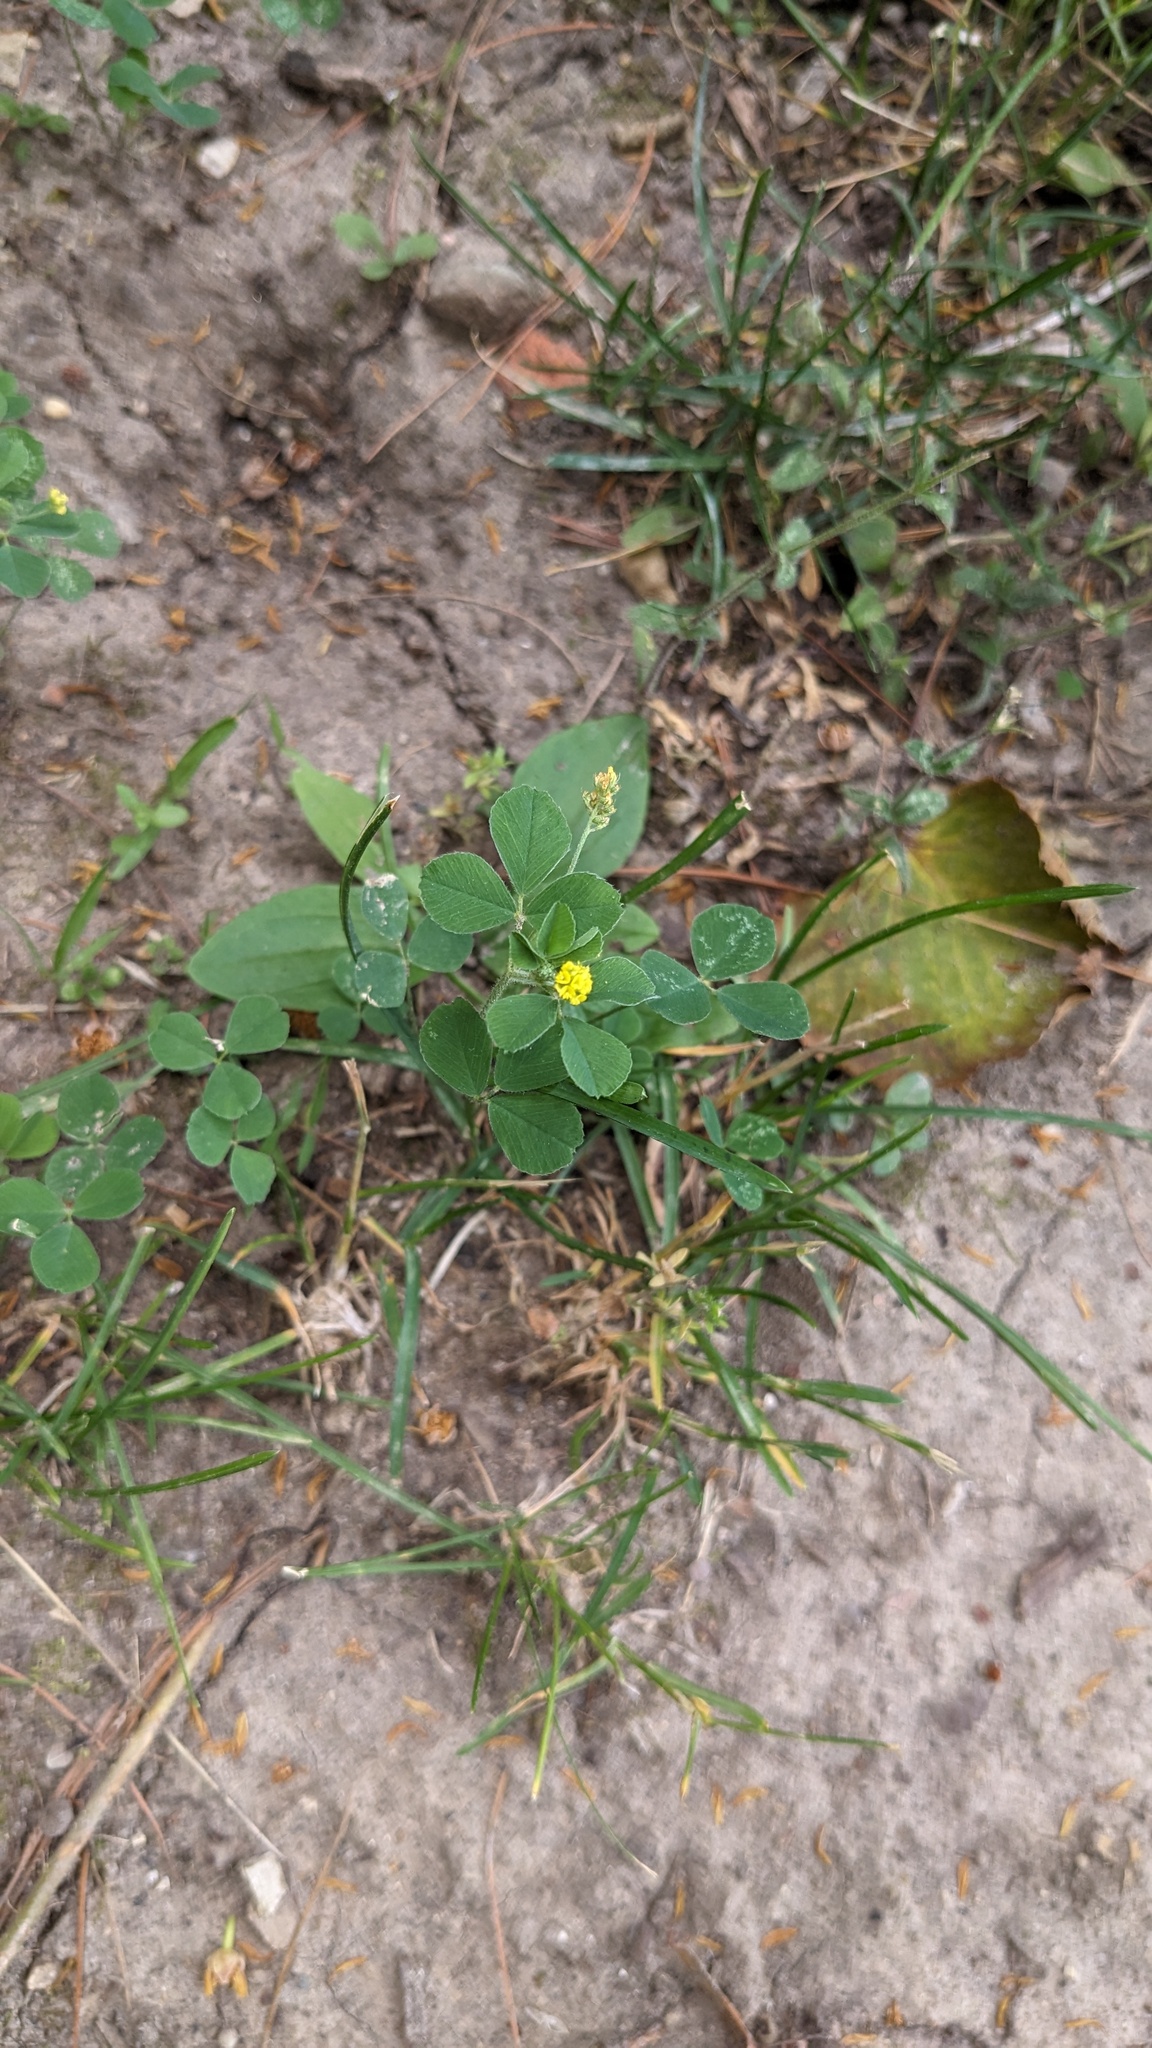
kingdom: Plantae
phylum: Tracheophyta
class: Magnoliopsida
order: Fabales
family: Fabaceae
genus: Medicago
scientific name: Medicago lupulina
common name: Black medick
